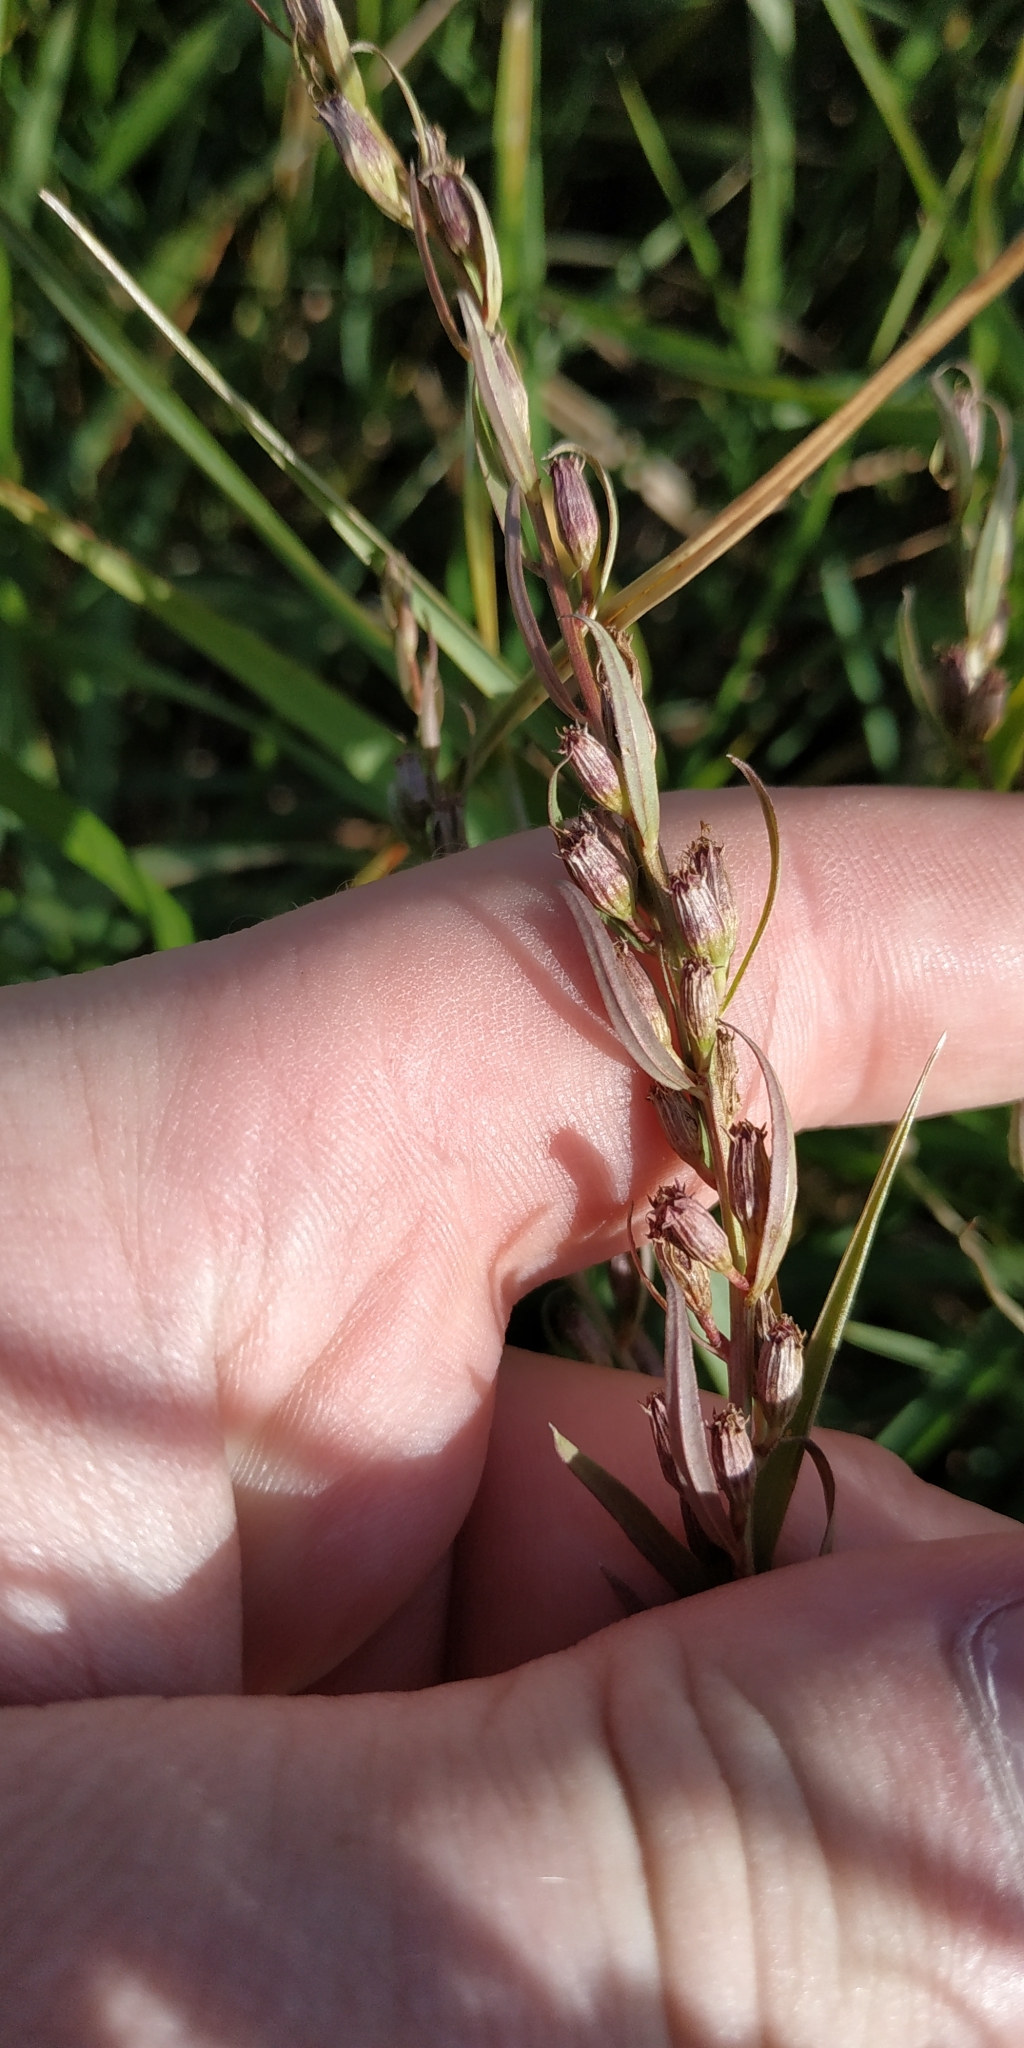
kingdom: Plantae
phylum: Tracheophyta
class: Magnoliopsida
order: Myrtales
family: Lythraceae
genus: Lythrum
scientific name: Lythrum virgatum
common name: European wand loosestrife
